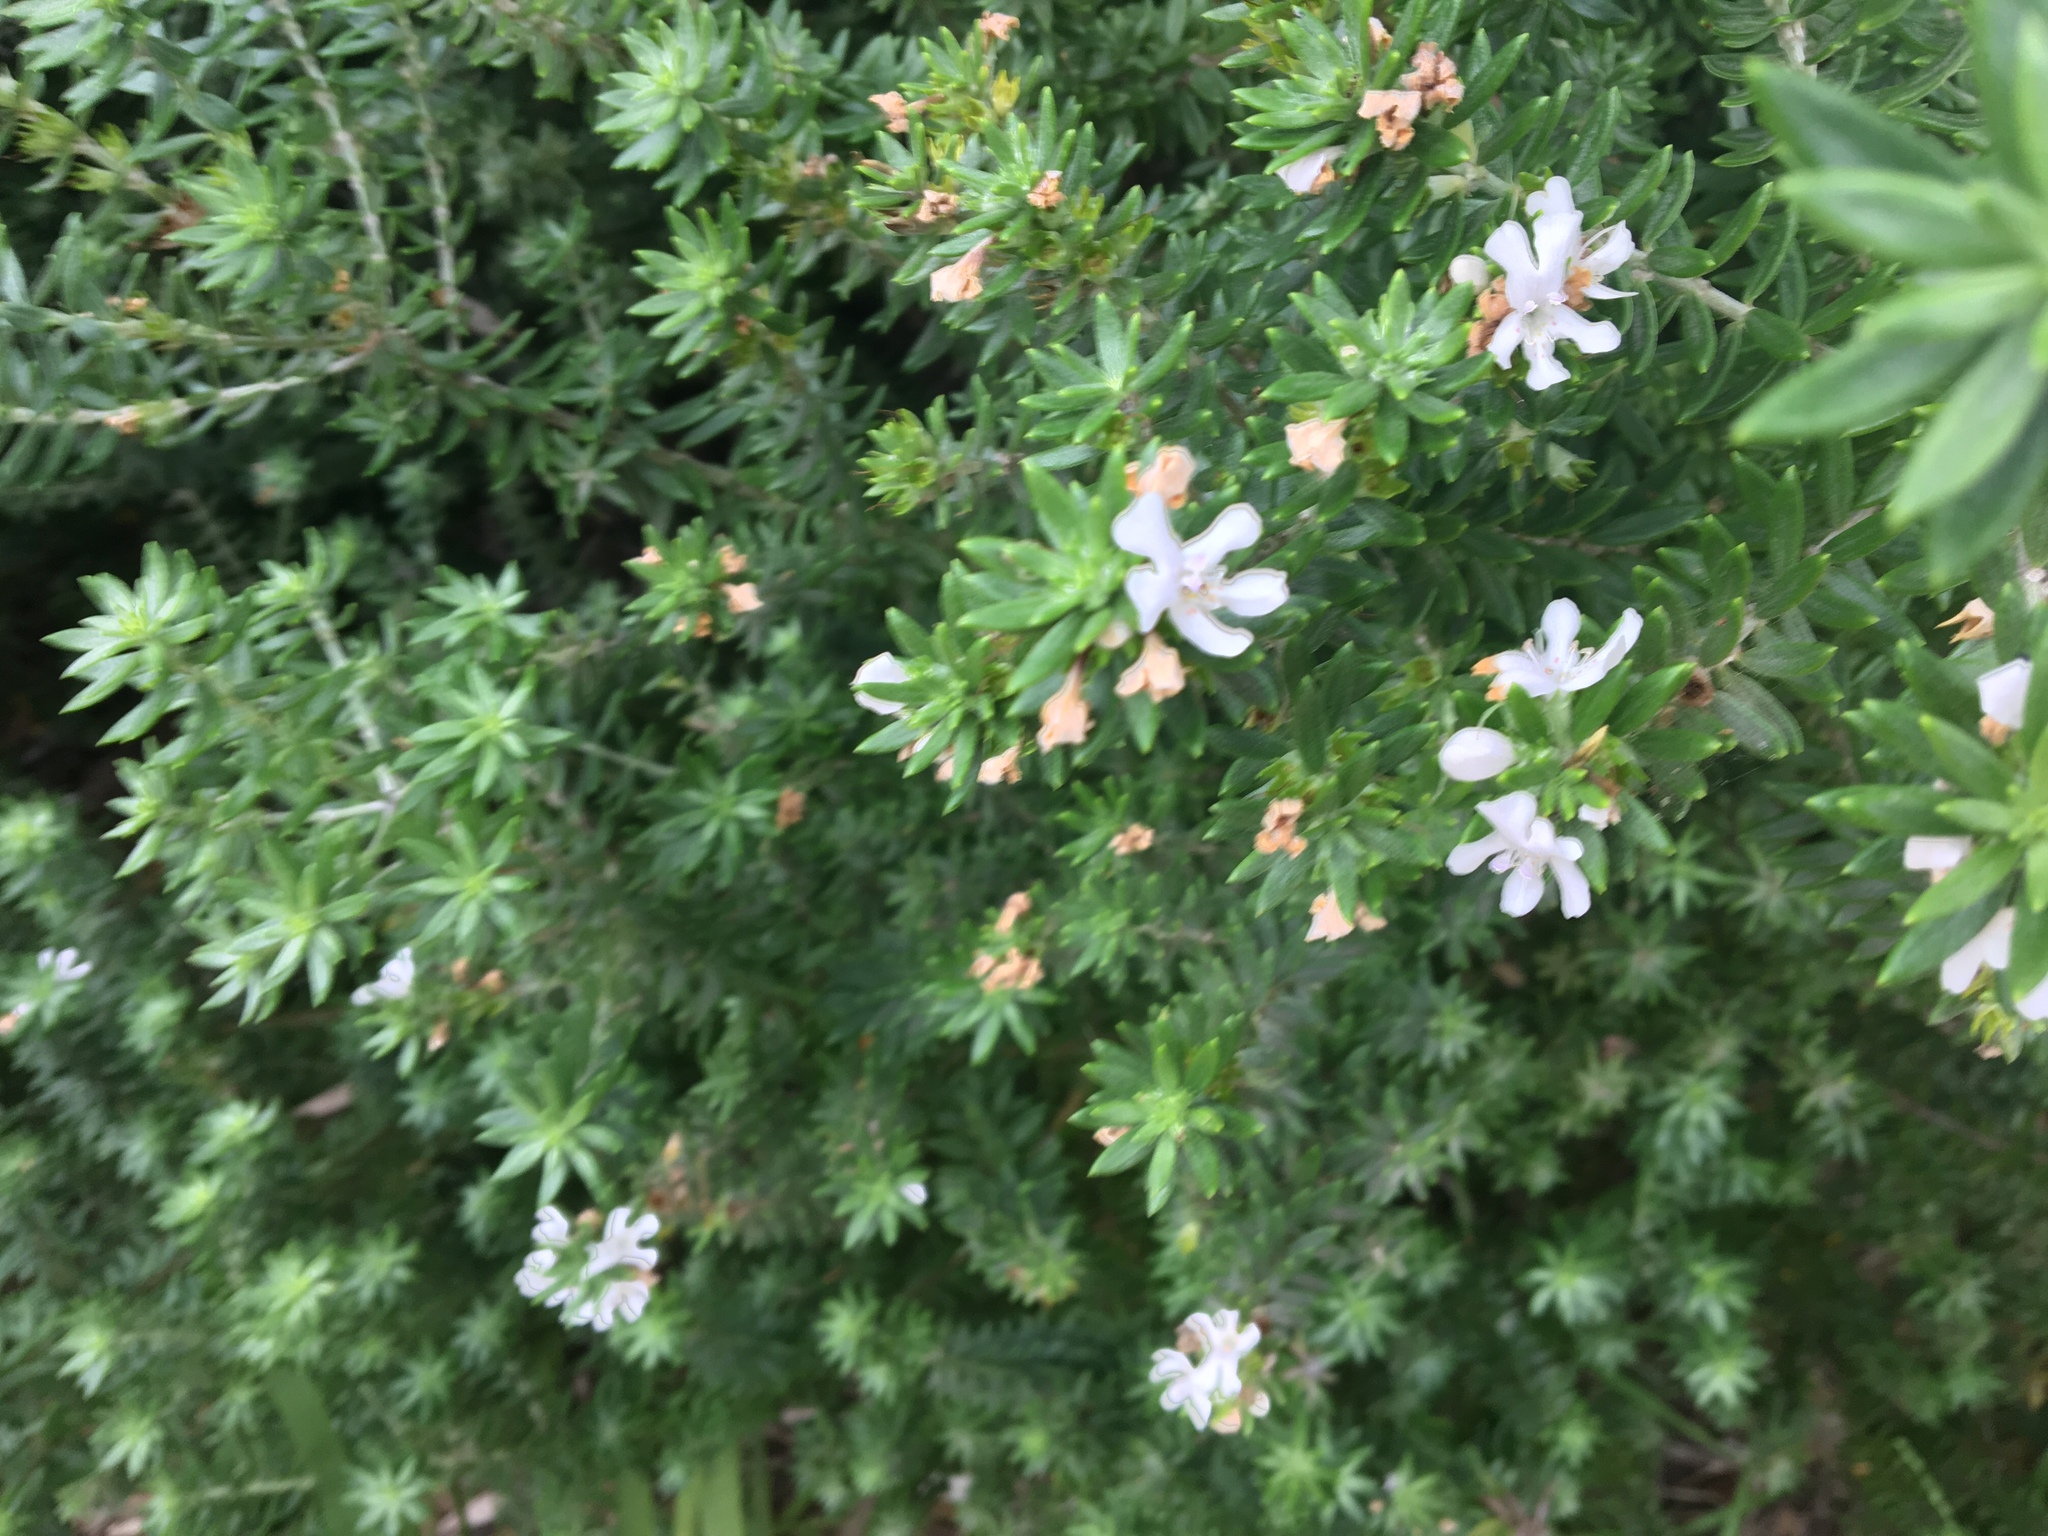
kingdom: Plantae
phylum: Tracheophyta
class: Magnoliopsida
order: Lamiales
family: Lamiaceae
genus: Westringia
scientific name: Westringia fruticosa
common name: Coastal-rosemary
